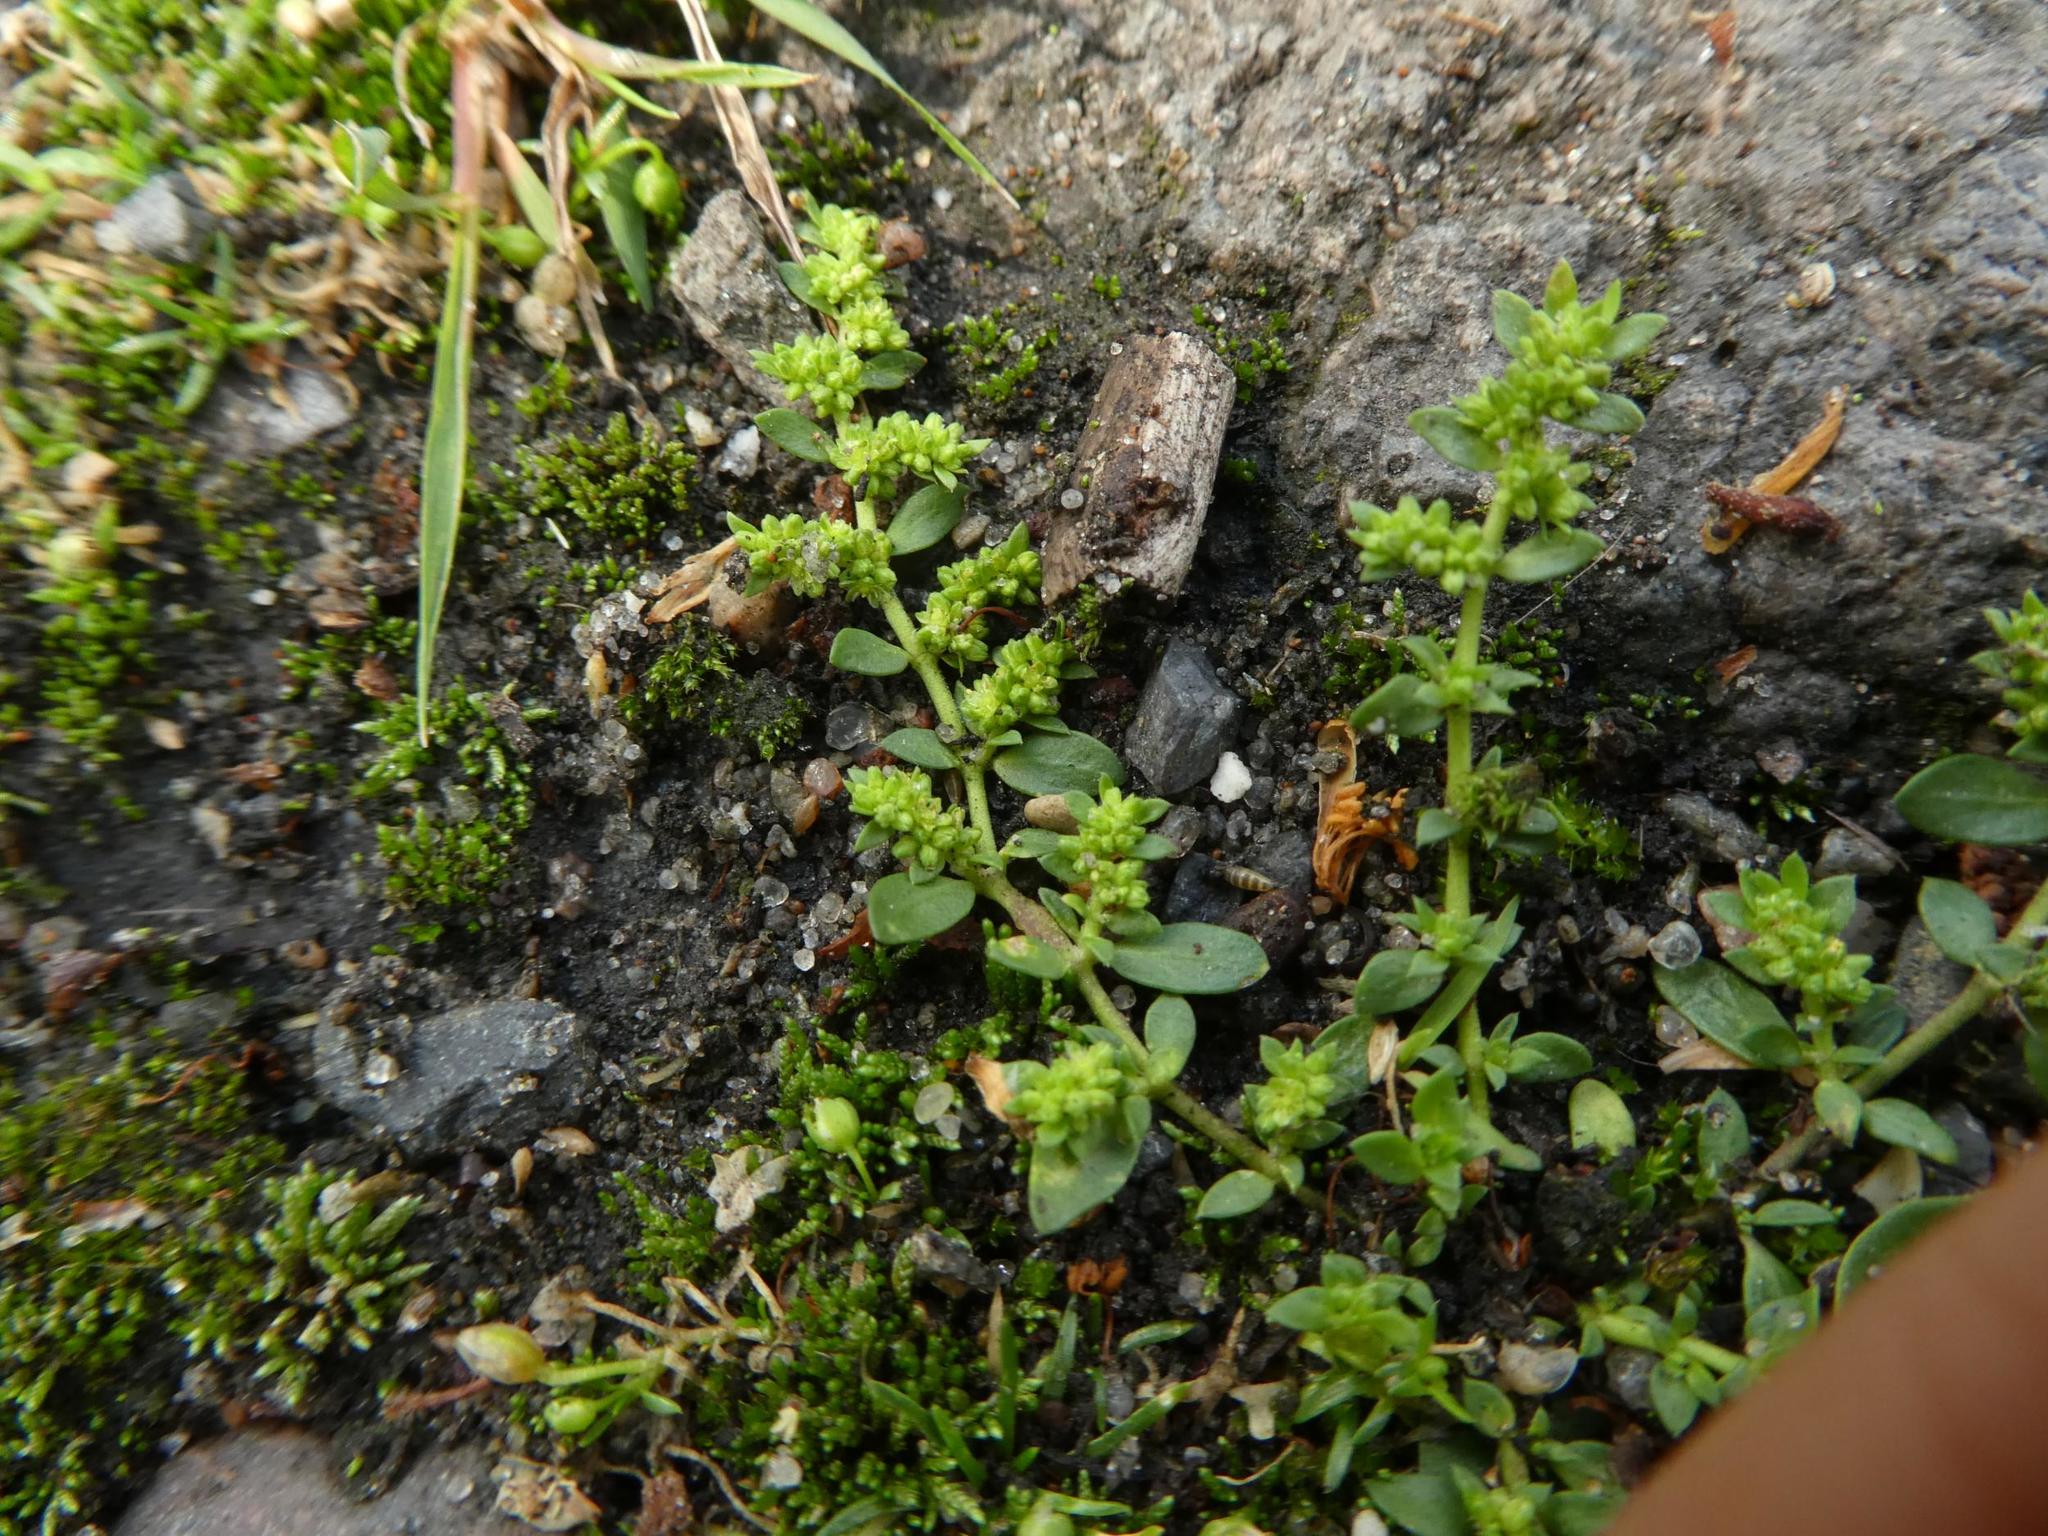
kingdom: Plantae
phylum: Tracheophyta
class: Magnoliopsida
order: Caryophyllales
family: Caryophyllaceae
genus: Herniaria
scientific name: Herniaria glabra
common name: Smooth rupturewort
